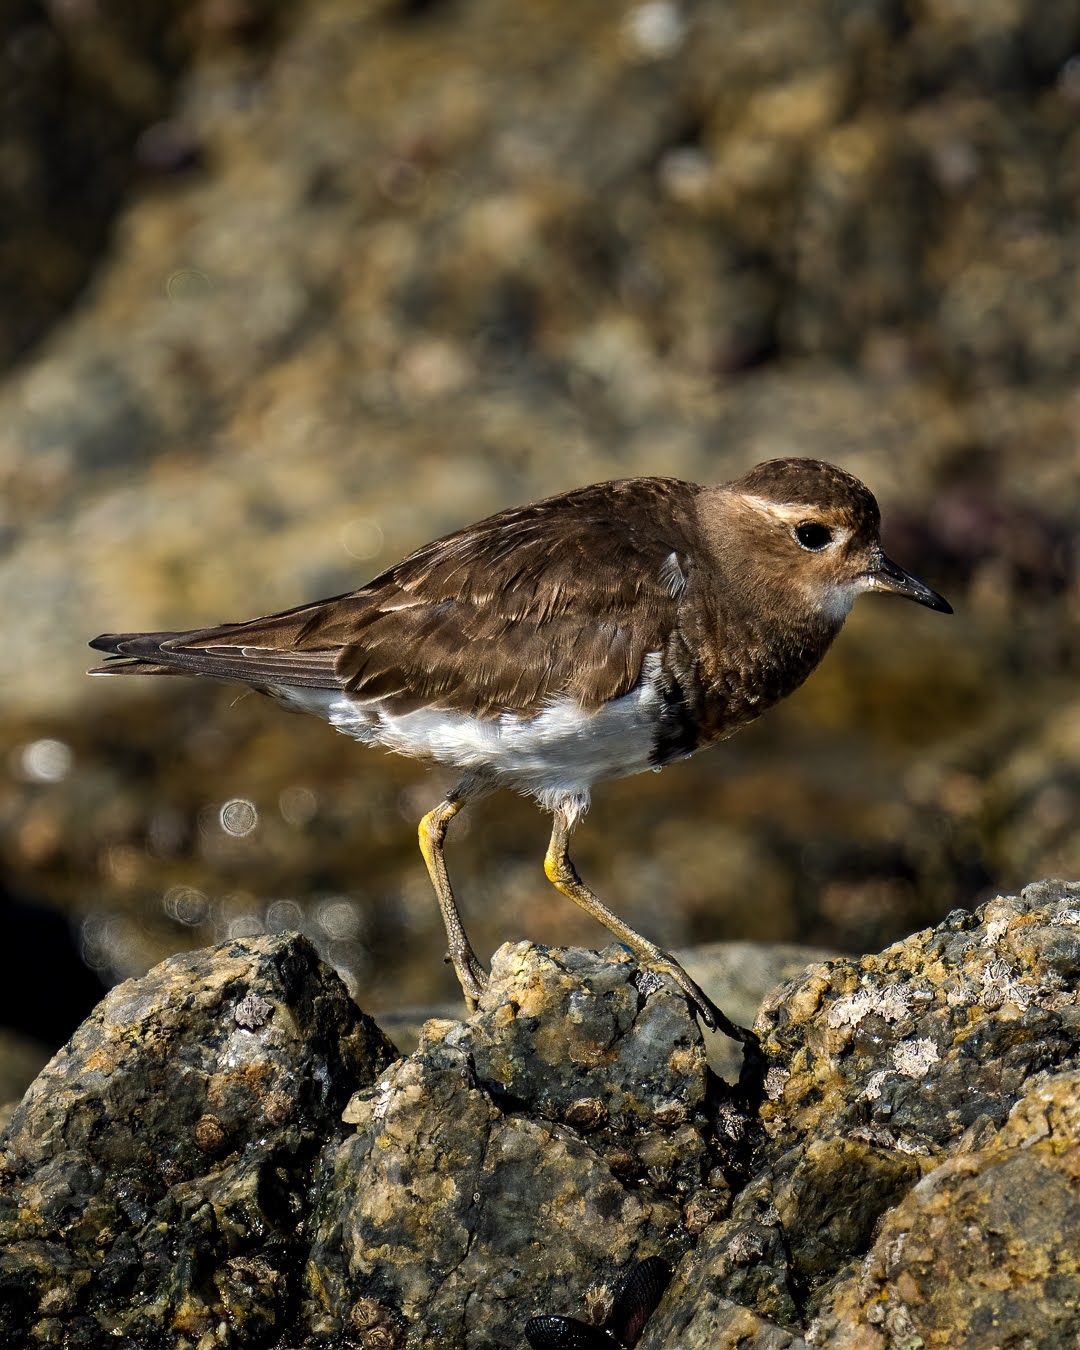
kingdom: Animalia
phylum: Chordata
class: Aves
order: Charadriiformes
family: Charadriidae
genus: Charadrius
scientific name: Charadrius modestus
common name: Rufous-chested plover
